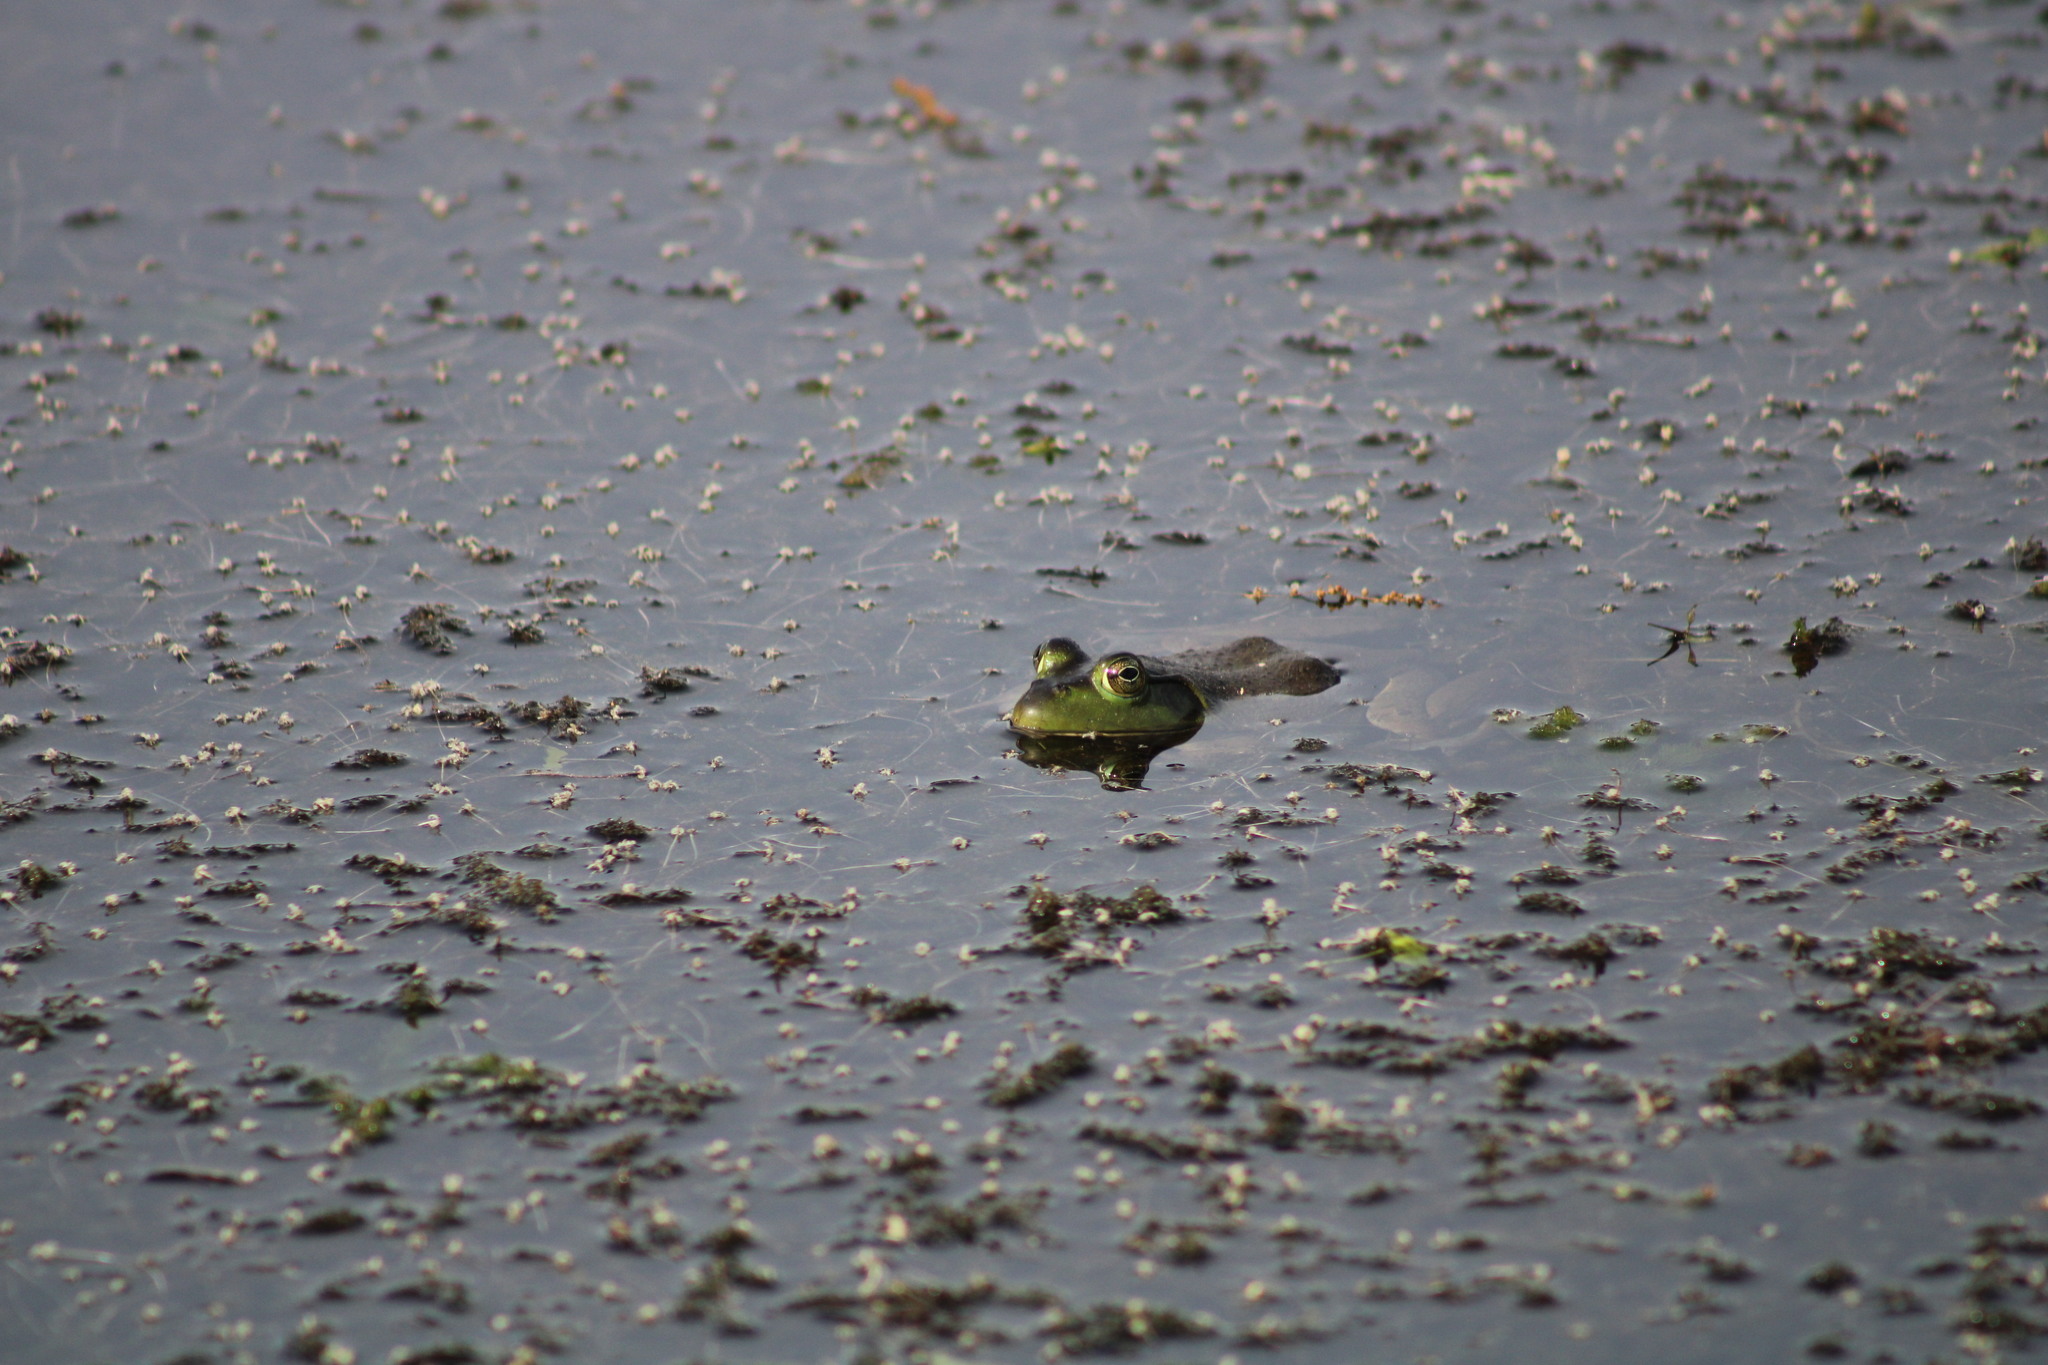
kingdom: Animalia
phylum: Chordata
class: Amphibia
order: Anura
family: Ranidae
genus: Lithobates
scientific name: Lithobates catesbeianus
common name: American bullfrog
